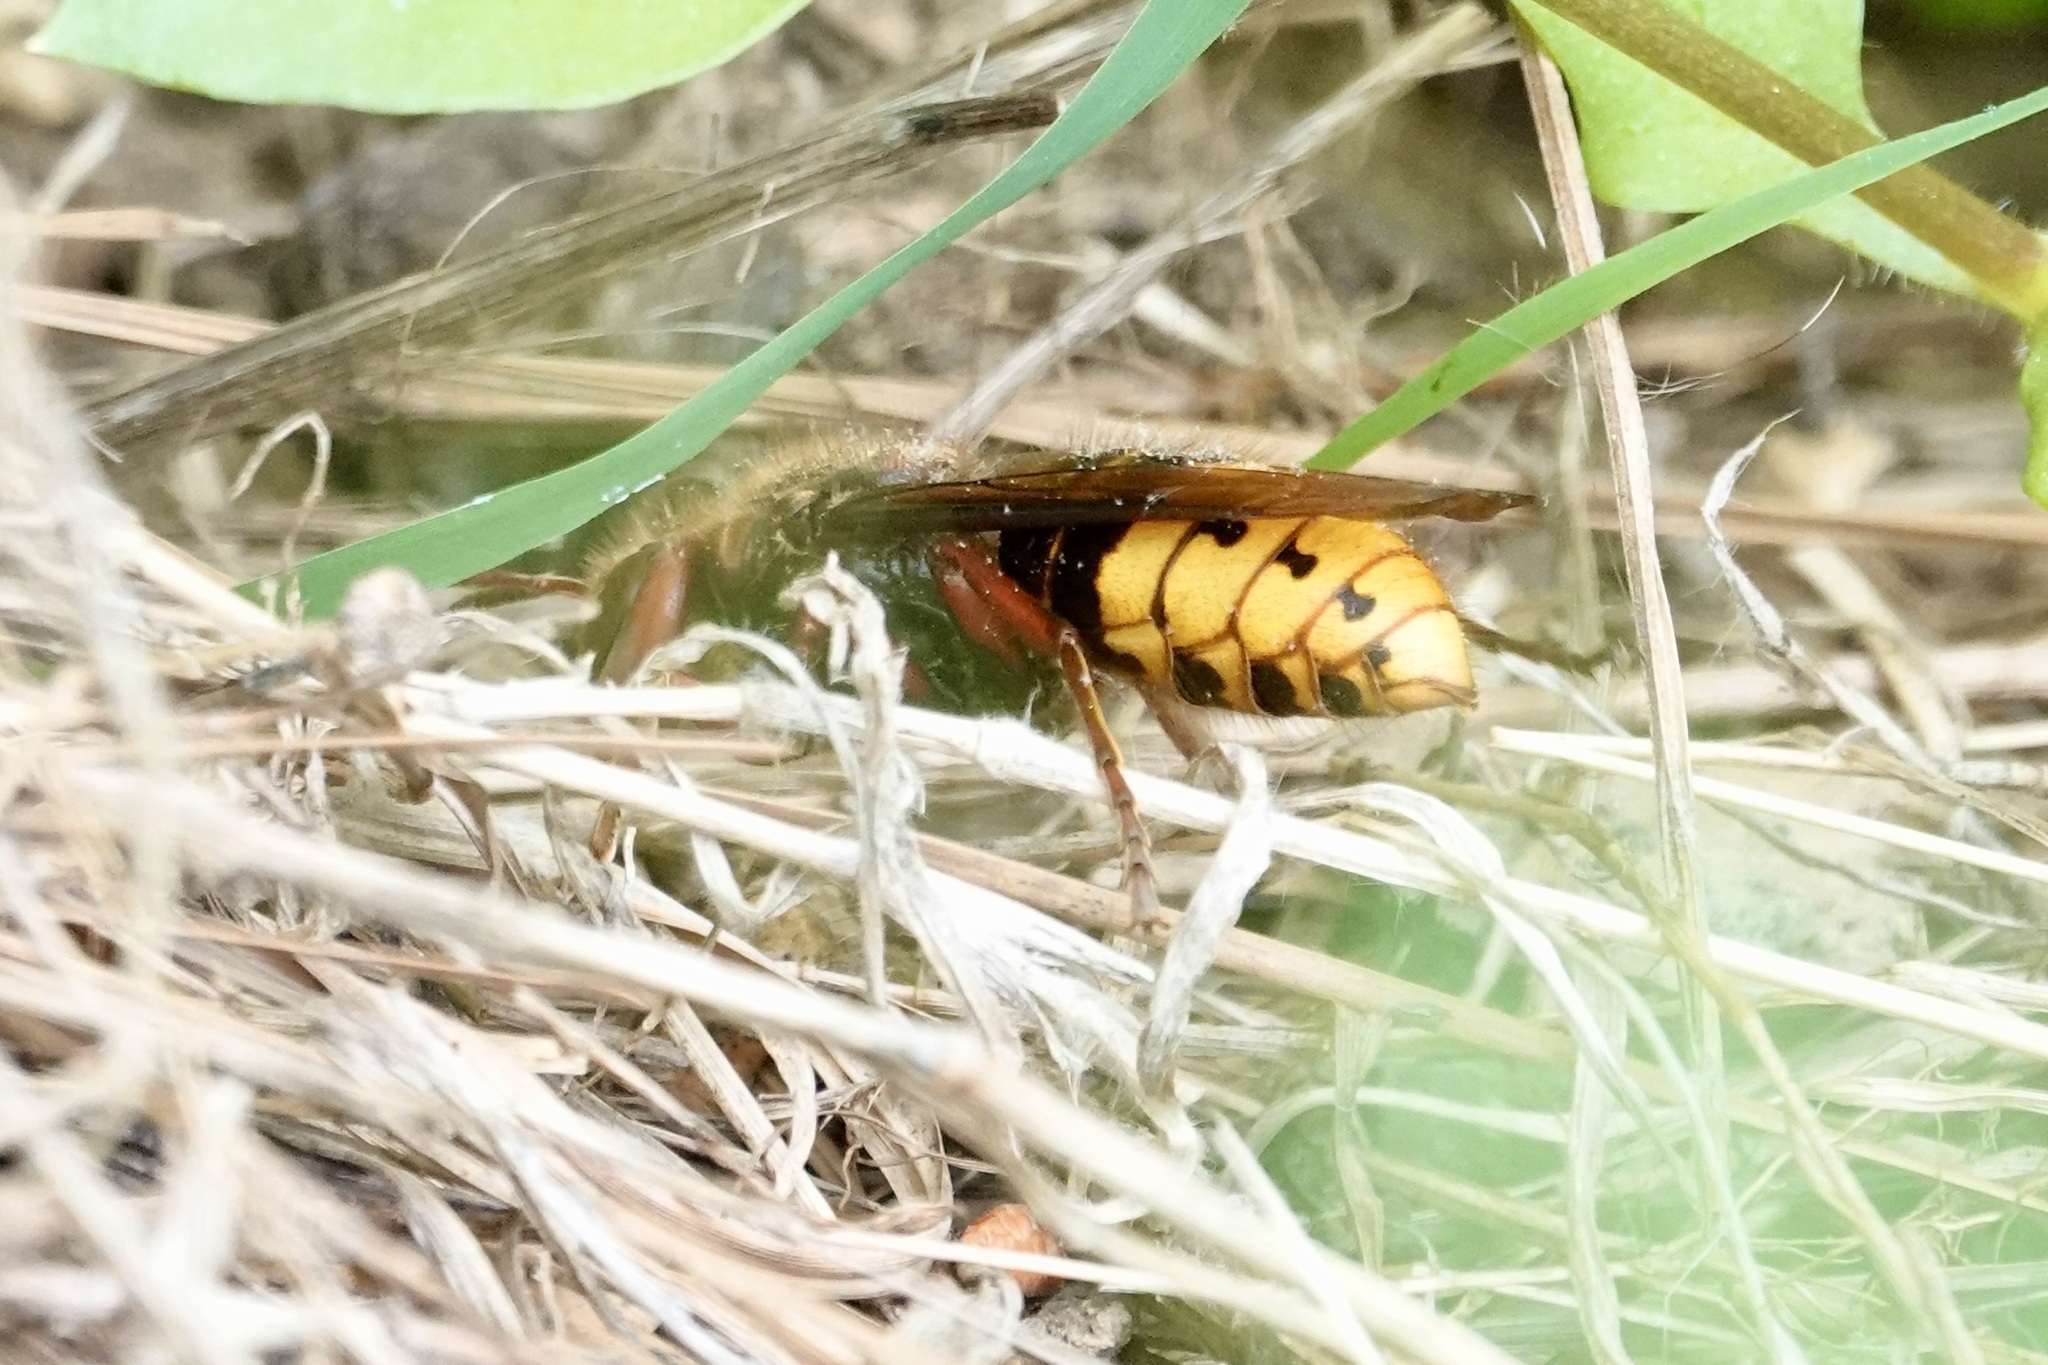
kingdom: Animalia
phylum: Arthropoda
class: Insecta
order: Hymenoptera
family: Vespidae
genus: Vespa
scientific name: Vespa crabro
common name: Hornet
